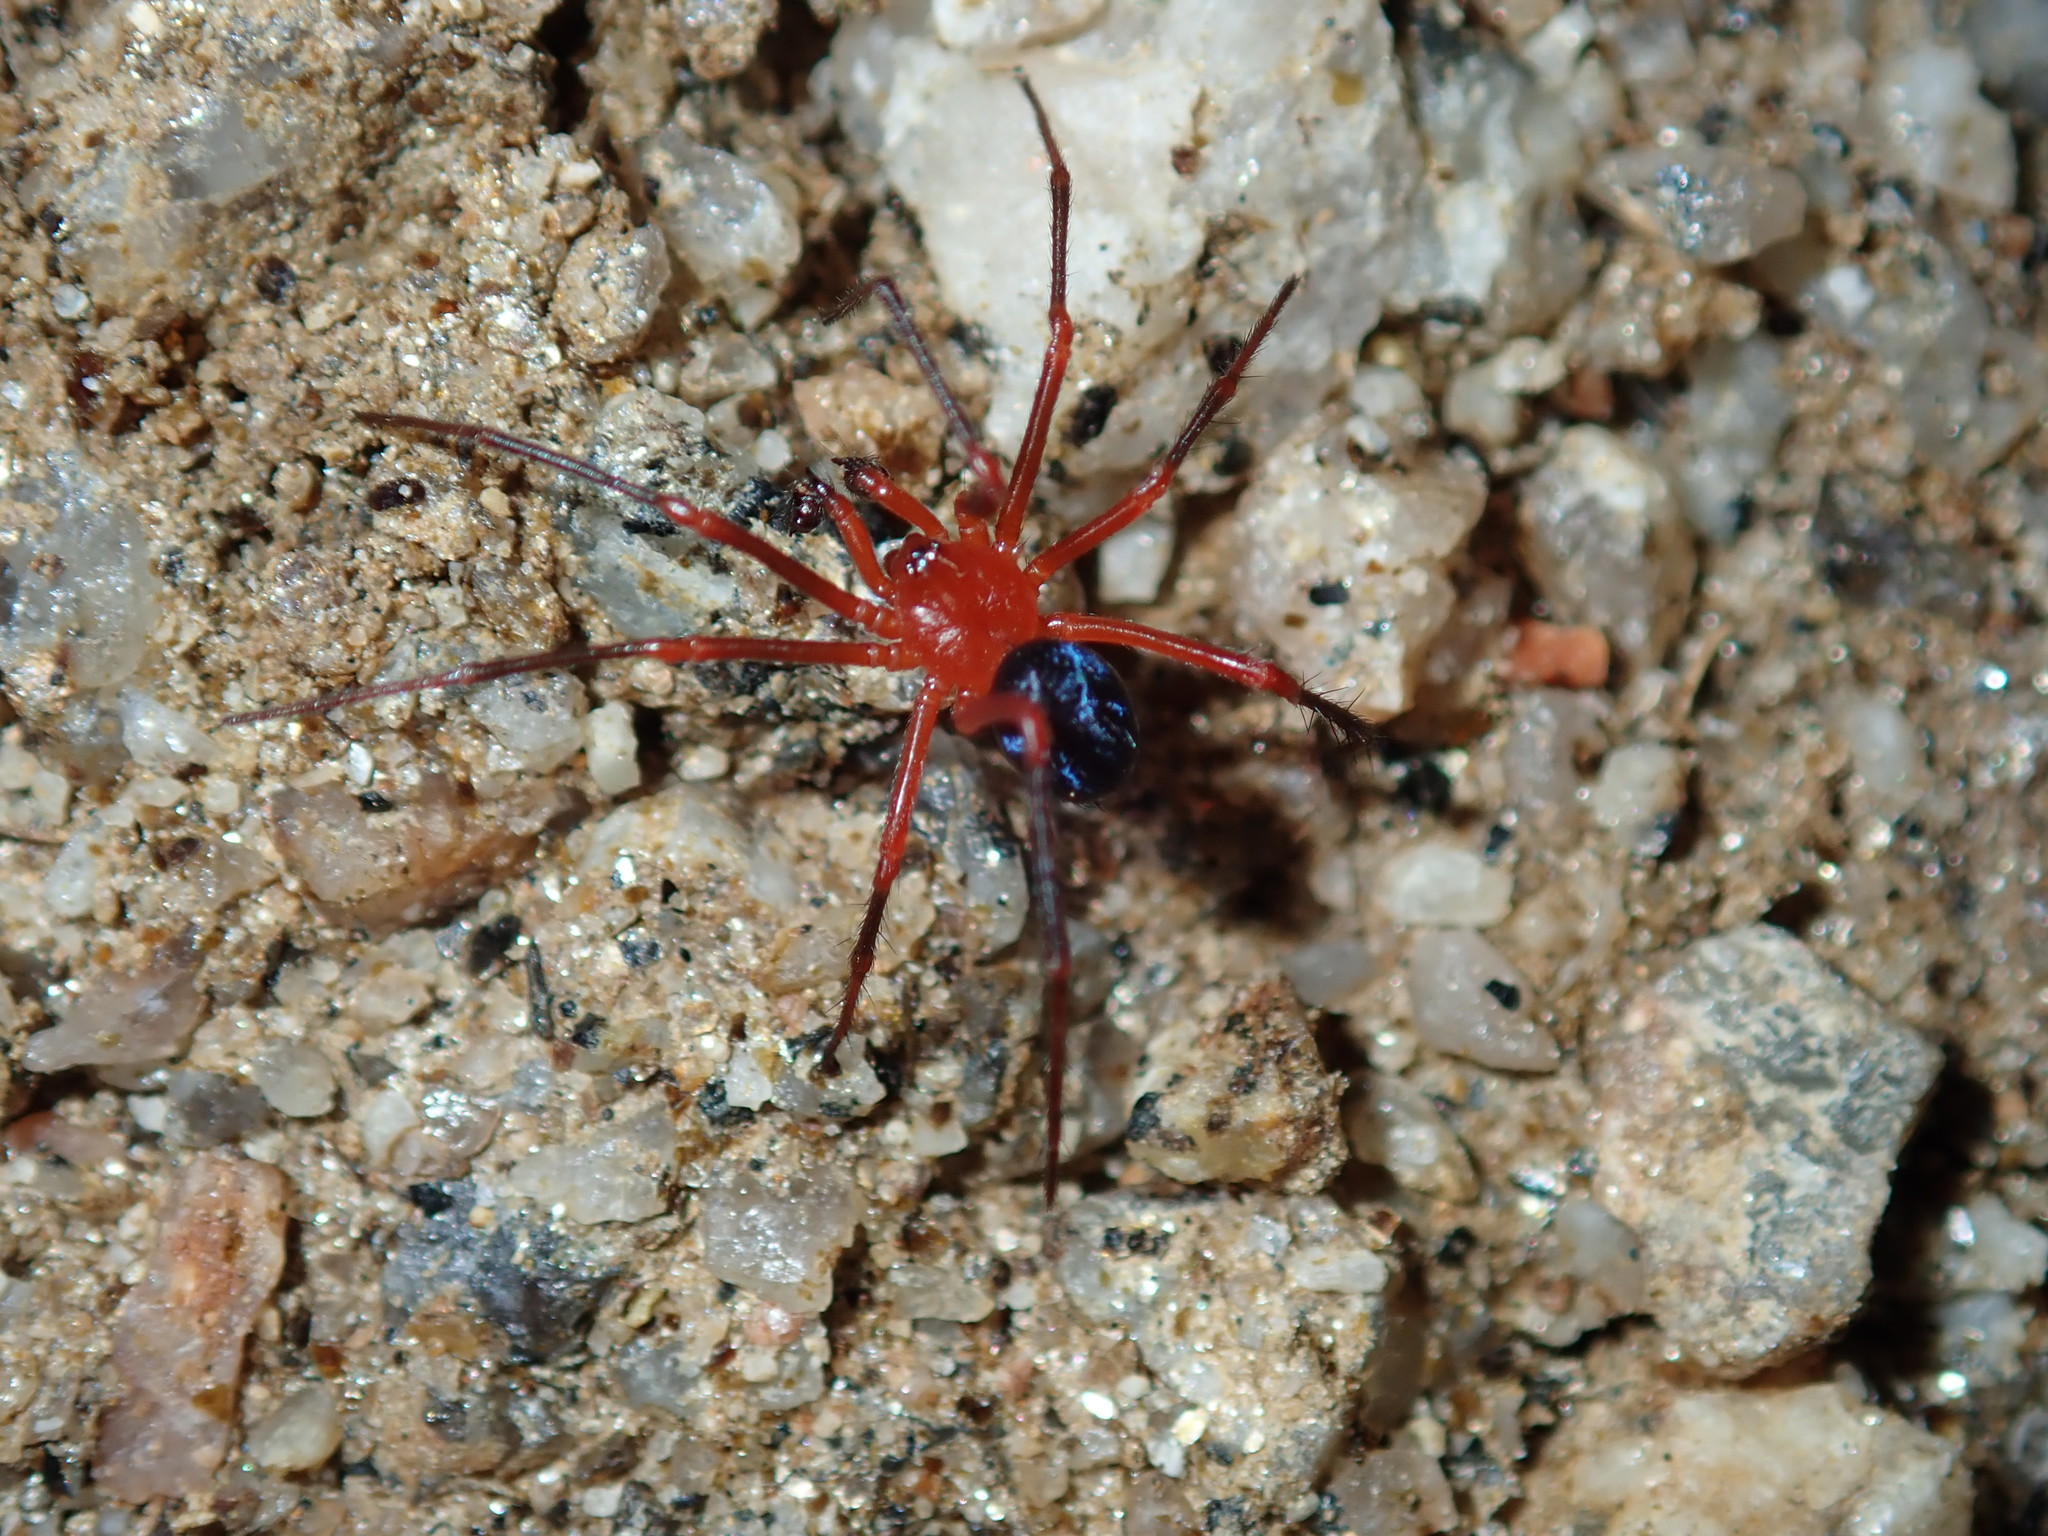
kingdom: Animalia
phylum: Arthropoda
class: Arachnida
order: Araneae
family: Nicodamidae
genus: Nicodamus
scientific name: Nicodamus peregrinus
